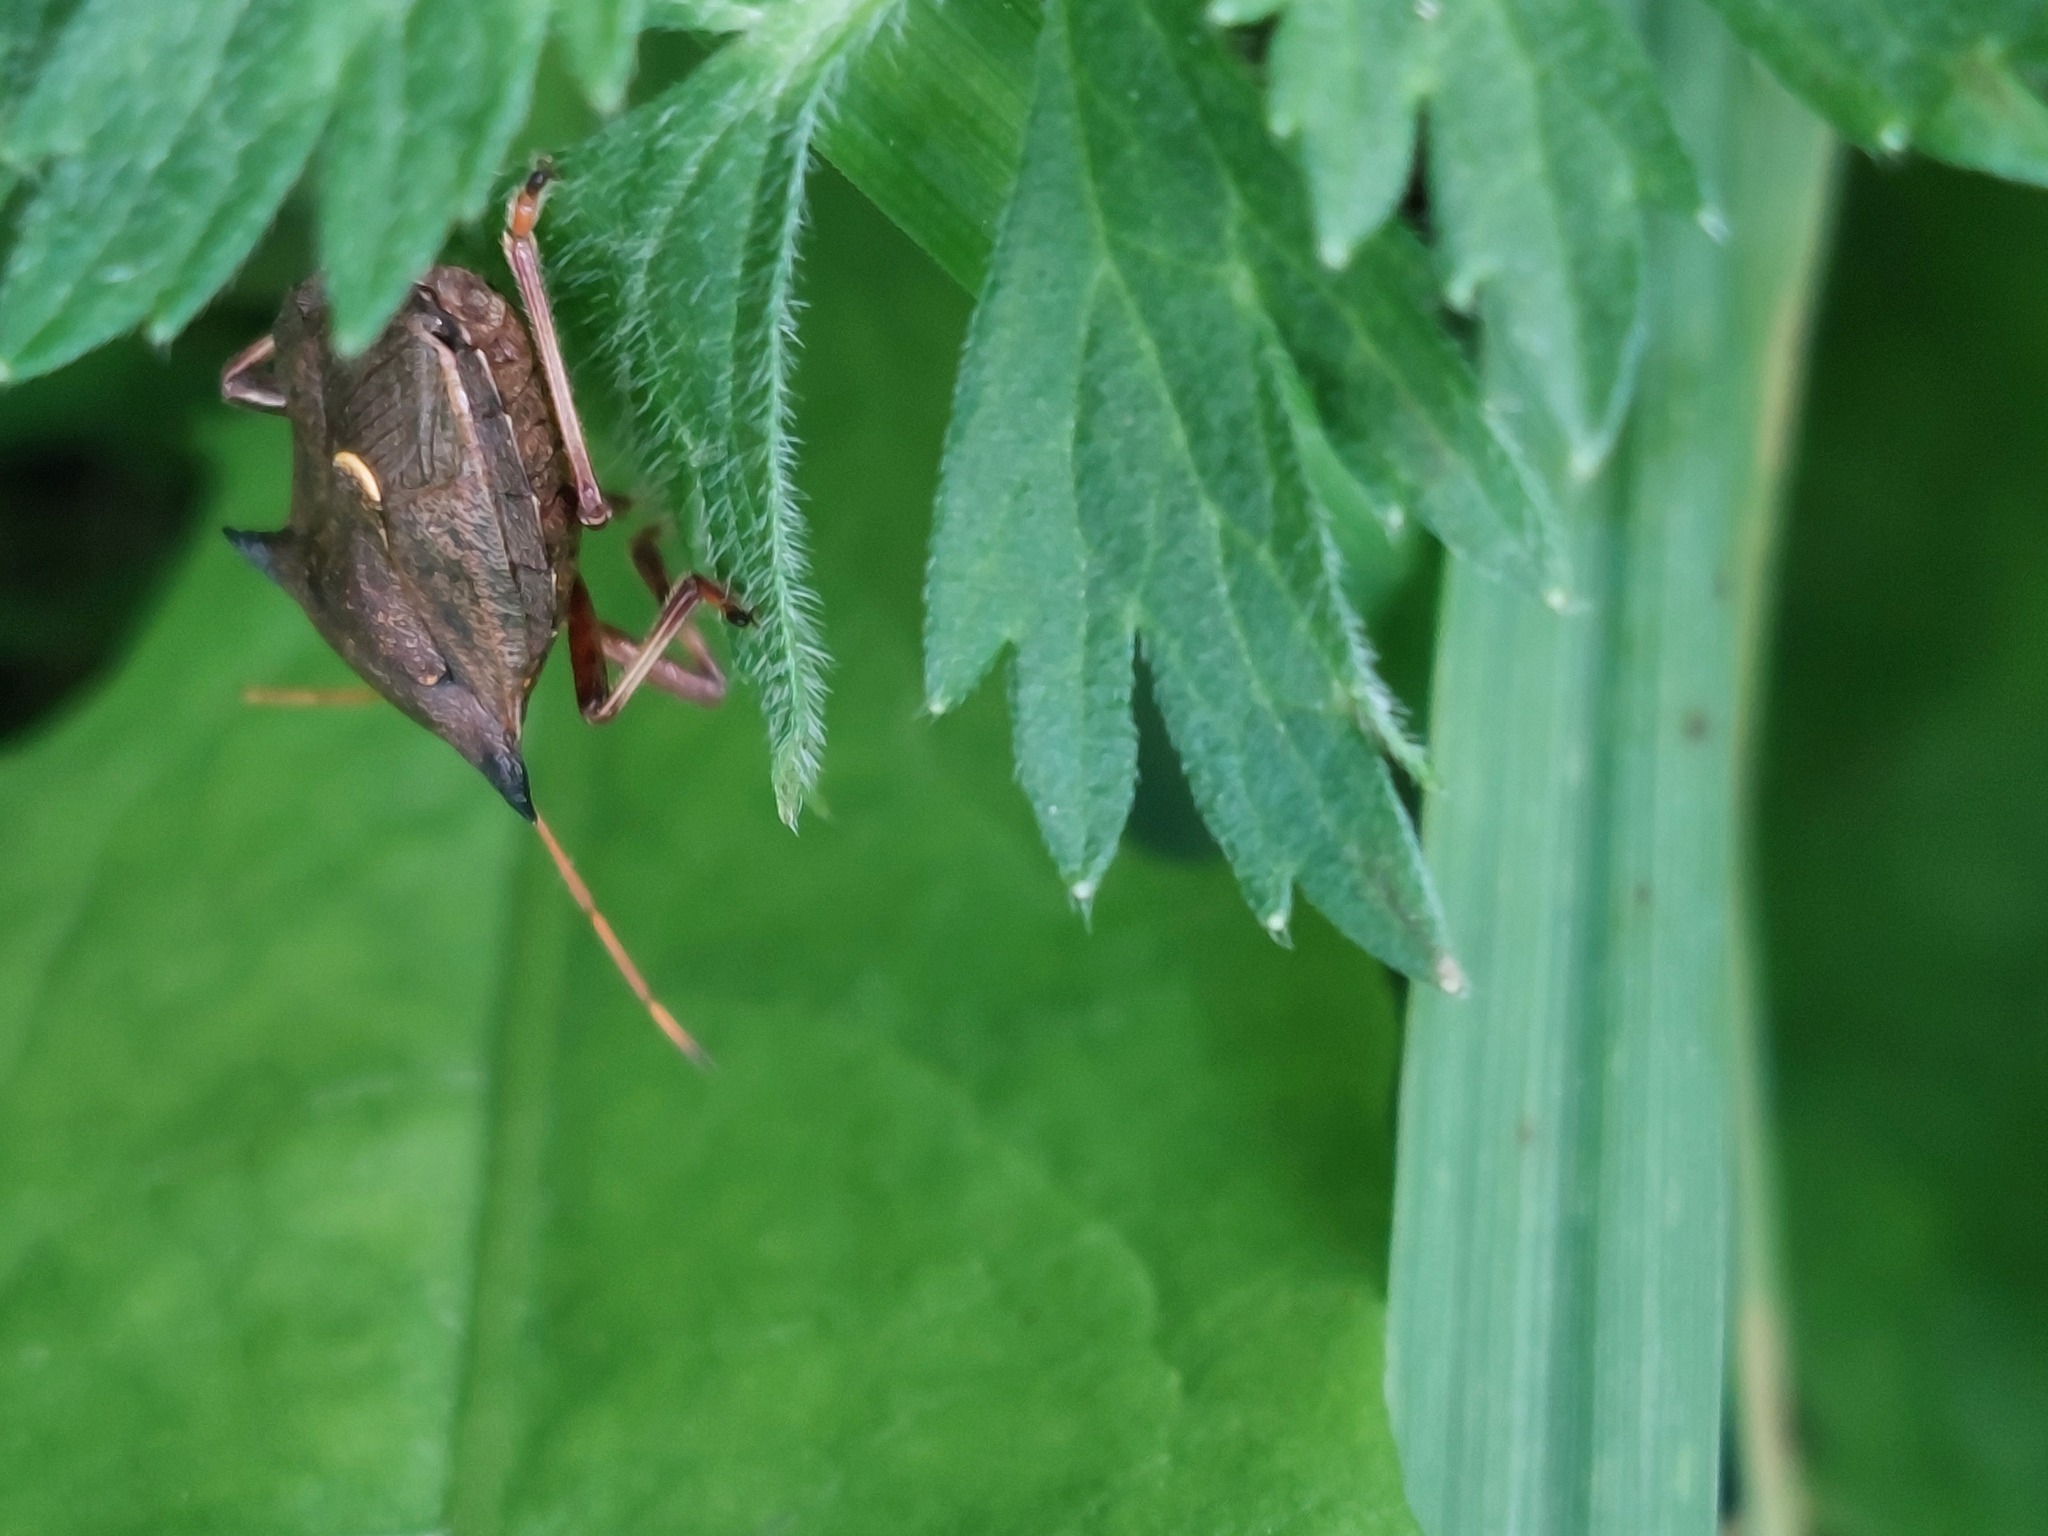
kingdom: Animalia
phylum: Arthropoda
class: Insecta
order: Hemiptera
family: Pentatomidae
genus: Picromerus
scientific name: Picromerus bidens
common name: Spiked shieldbug
